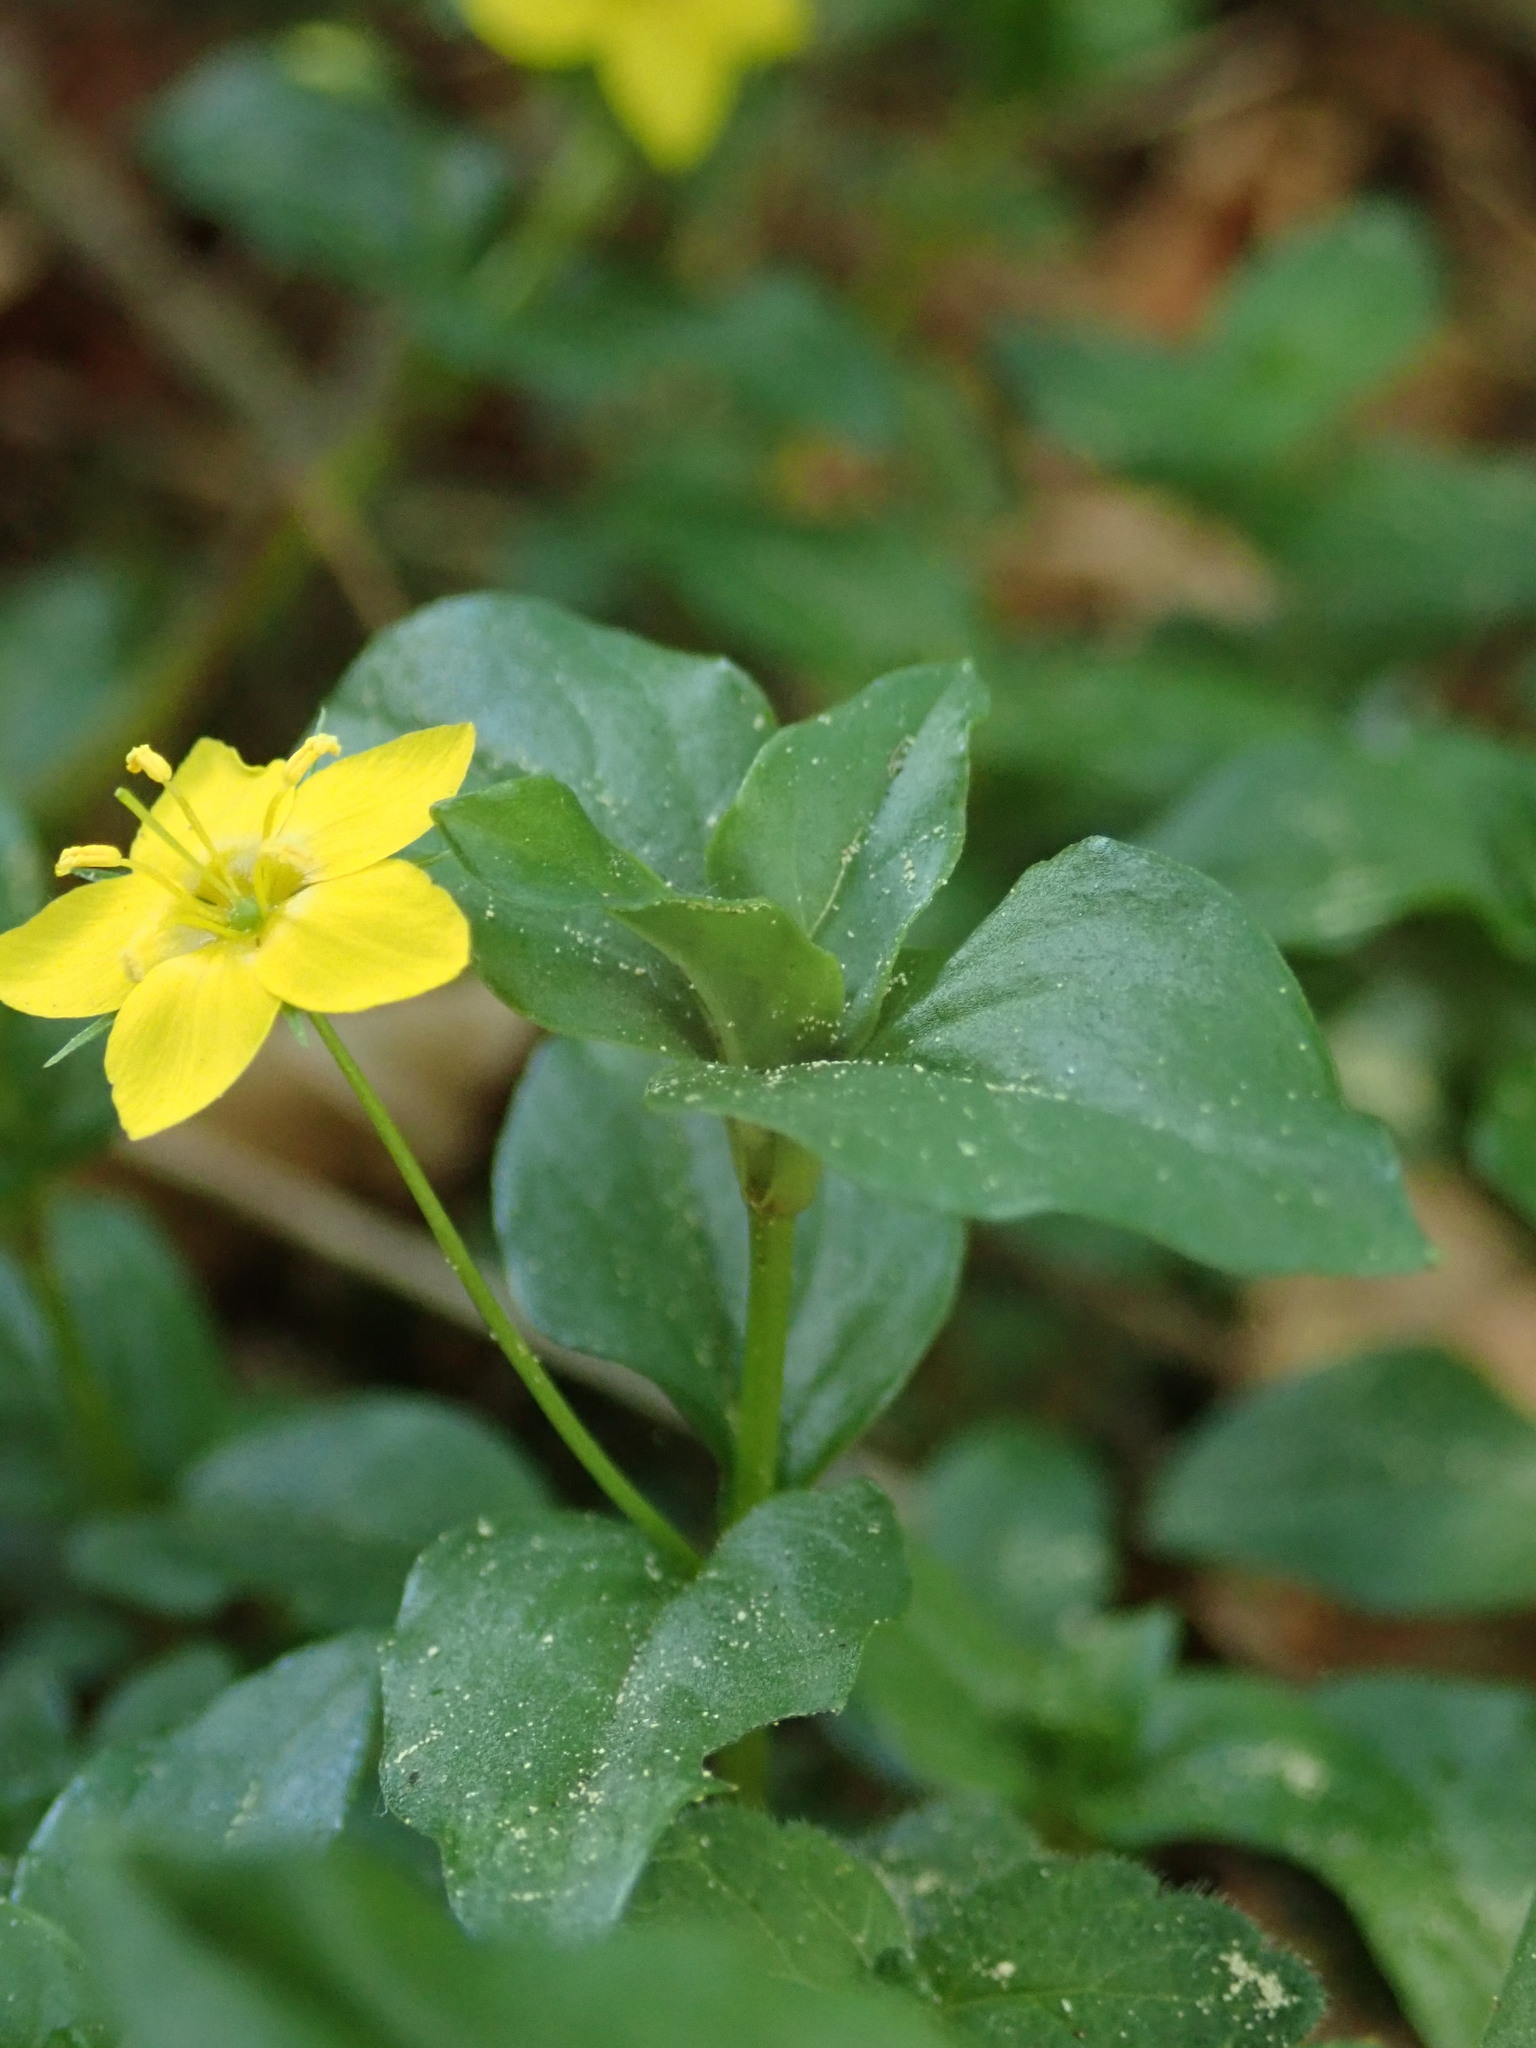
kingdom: Plantae
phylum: Tracheophyta
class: Magnoliopsida
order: Ericales
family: Primulaceae
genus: Lysimachia
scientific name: Lysimachia nemorum
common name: Yellow pimpernel
